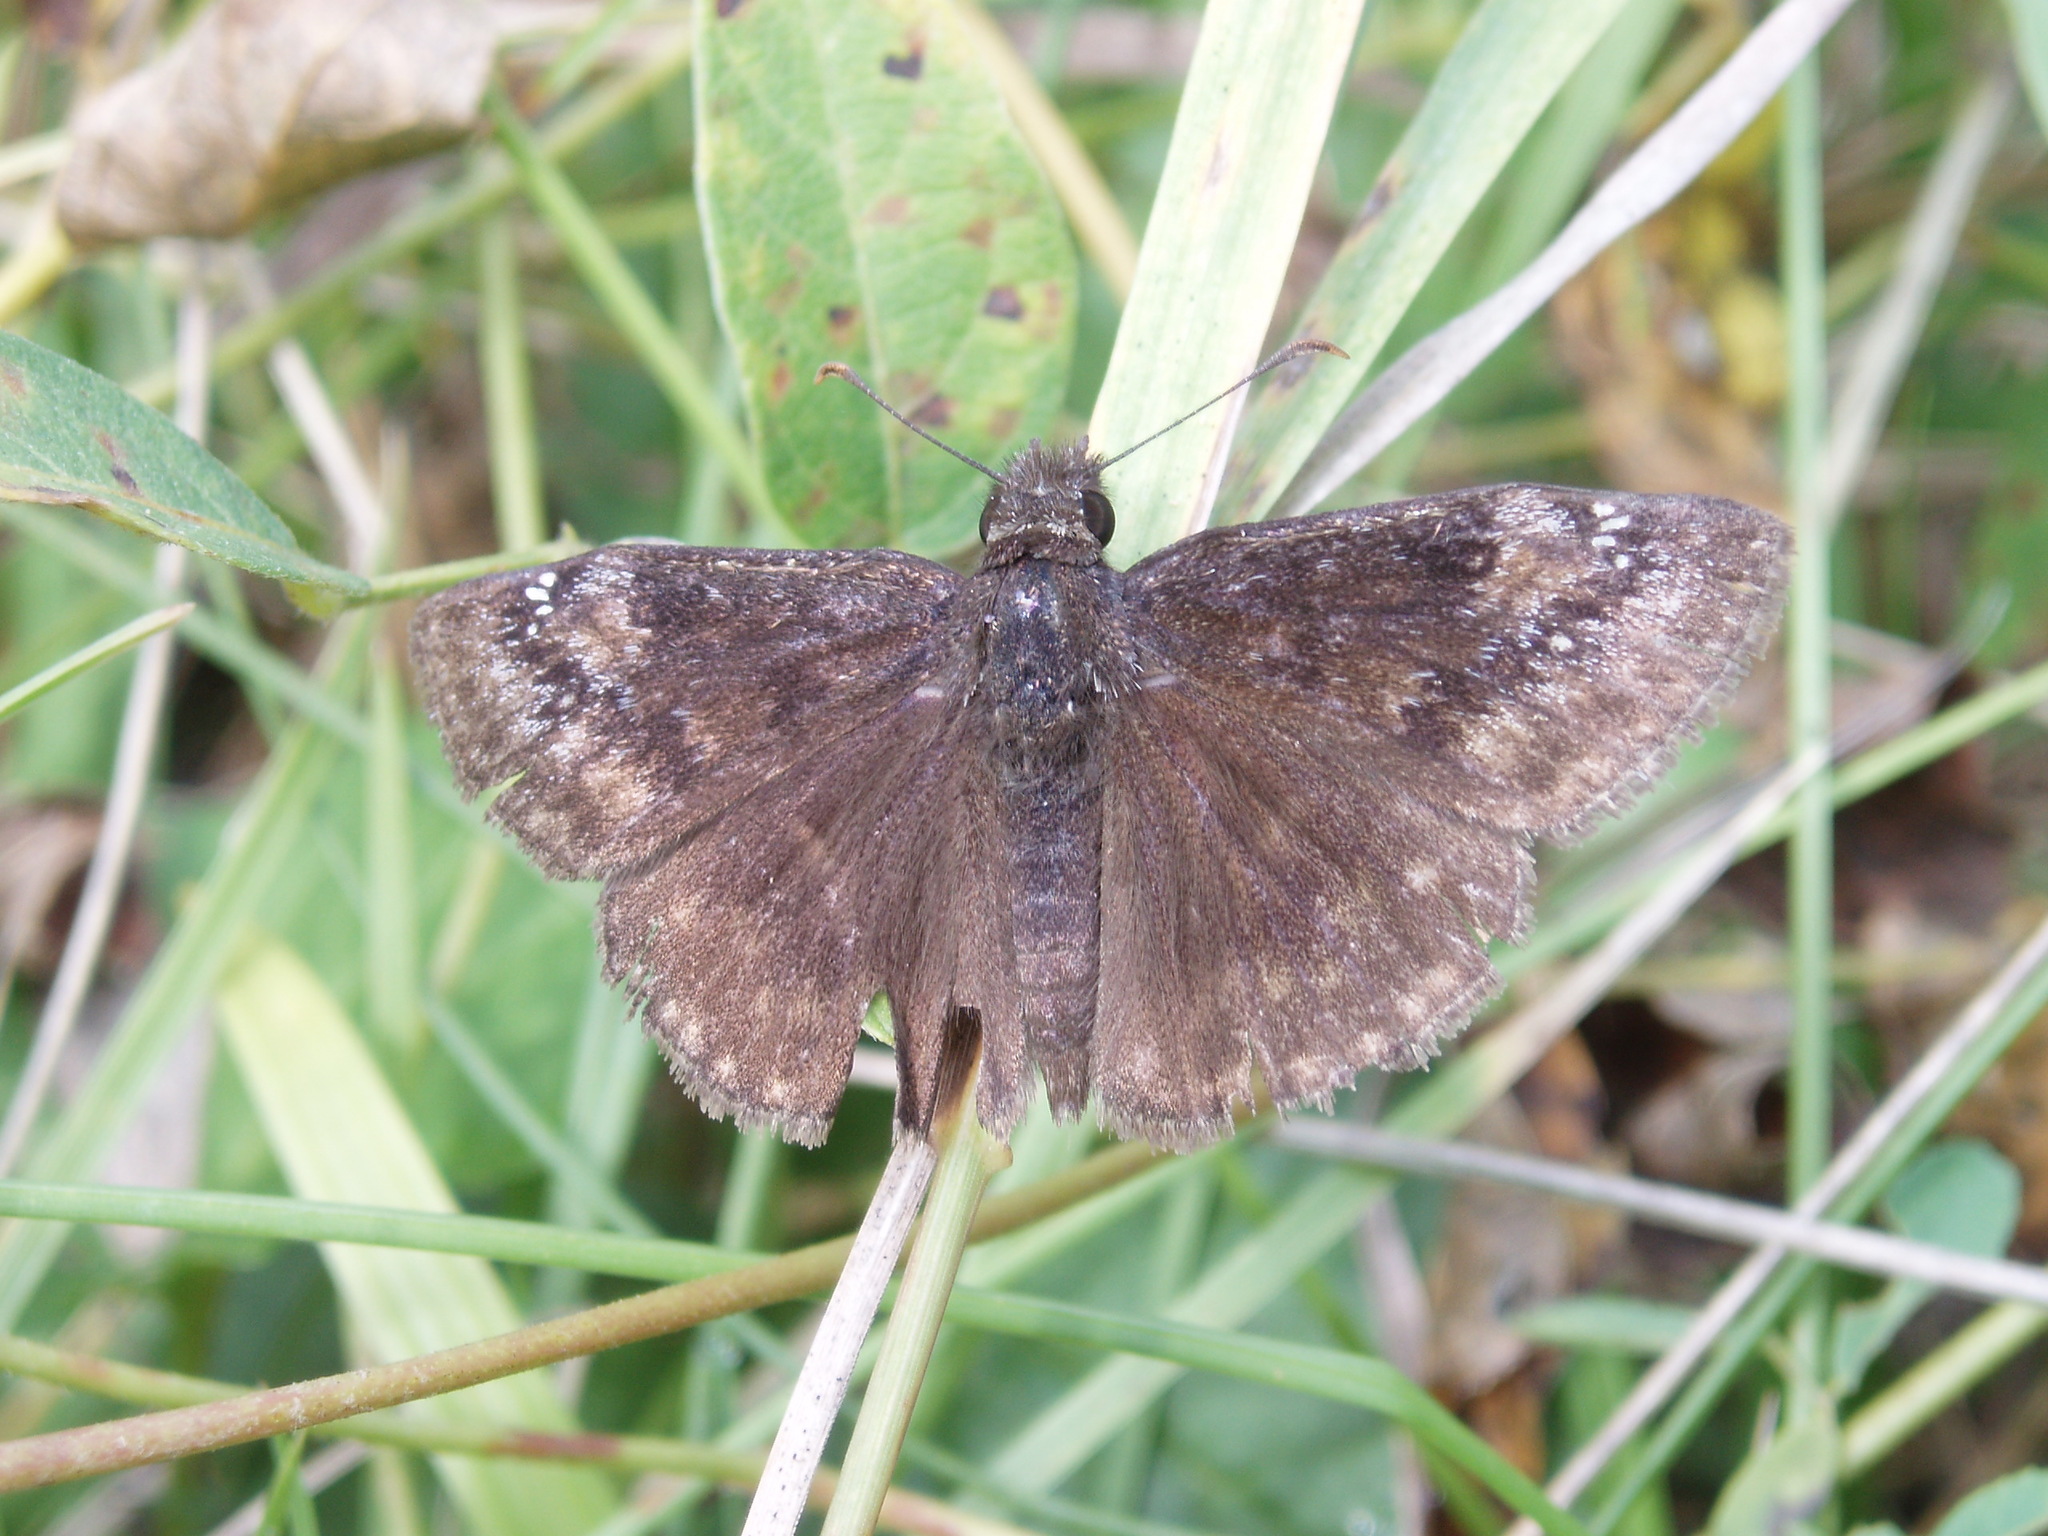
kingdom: Animalia
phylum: Arthropoda
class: Insecta
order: Lepidoptera
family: Hesperiidae
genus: Erynnis
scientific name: Erynnis baptisiae
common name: Wild indigo duskywing
